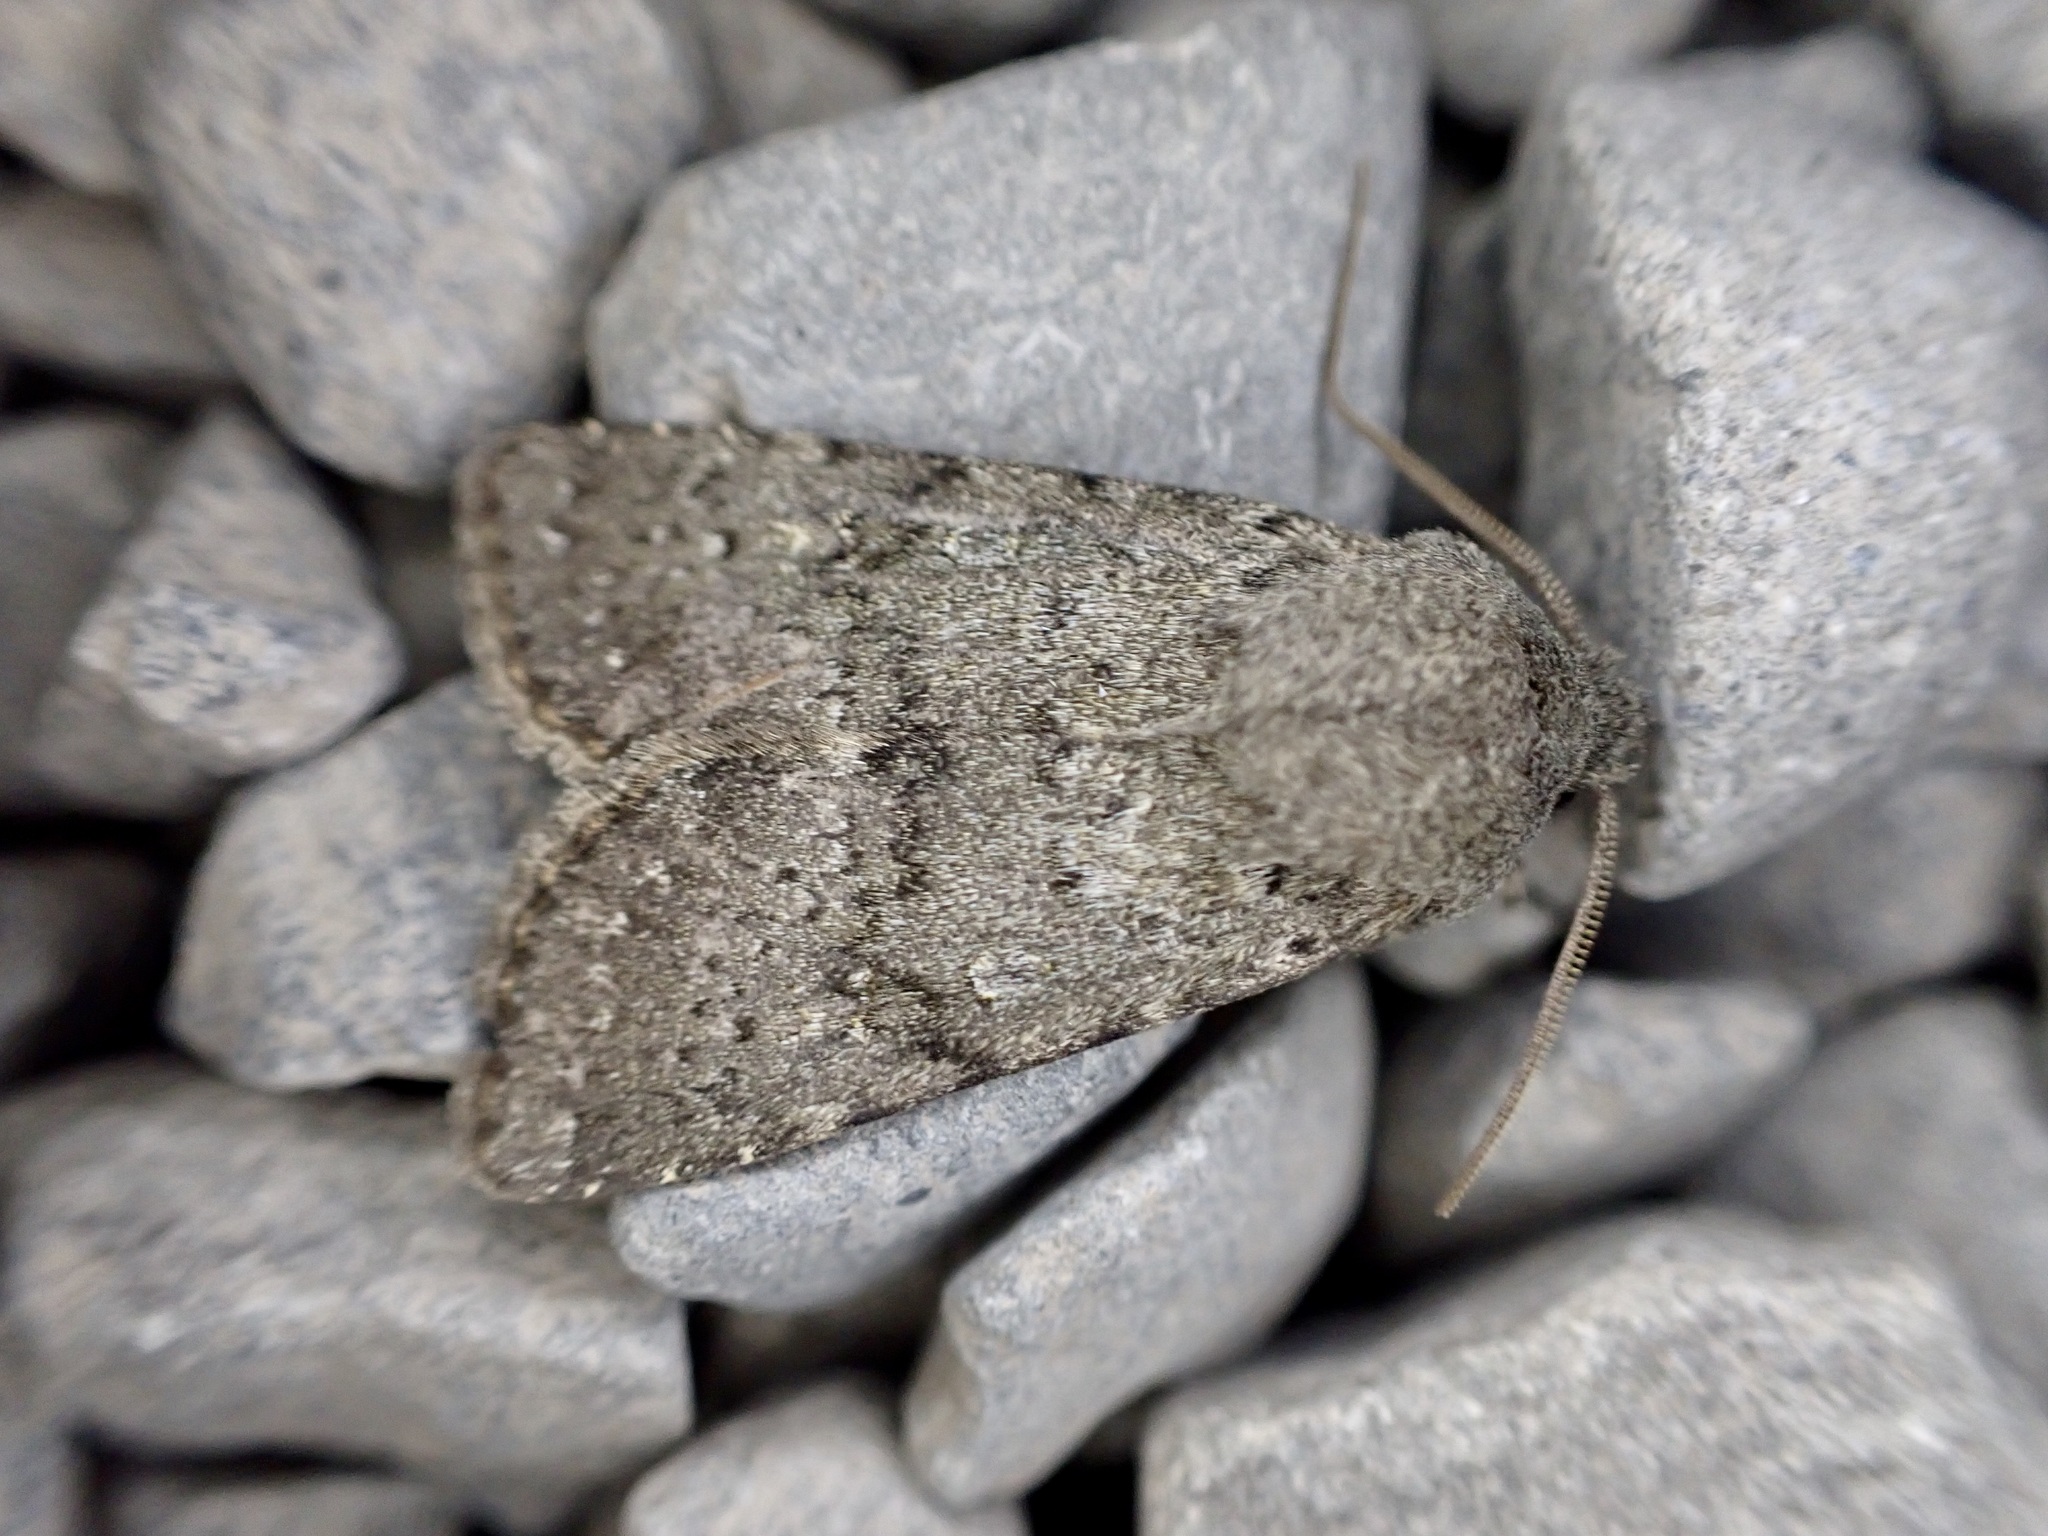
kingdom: Animalia
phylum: Arthropoda
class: Insecta
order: Lepidoptera
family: Noctuidae
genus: Ichneutica
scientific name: Ichneutica moderata
